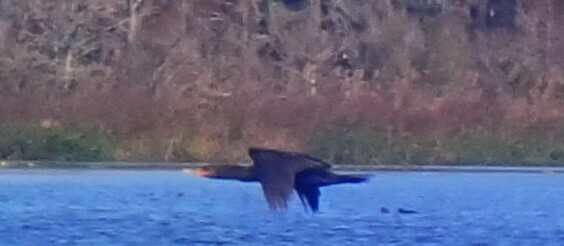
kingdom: Animalia
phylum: Chordata
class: Aves
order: Suliformes
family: Phalacrocoracidae
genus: Phalacrocorax
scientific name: Phalacrocorax auritus
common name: Double-crested cormorant
